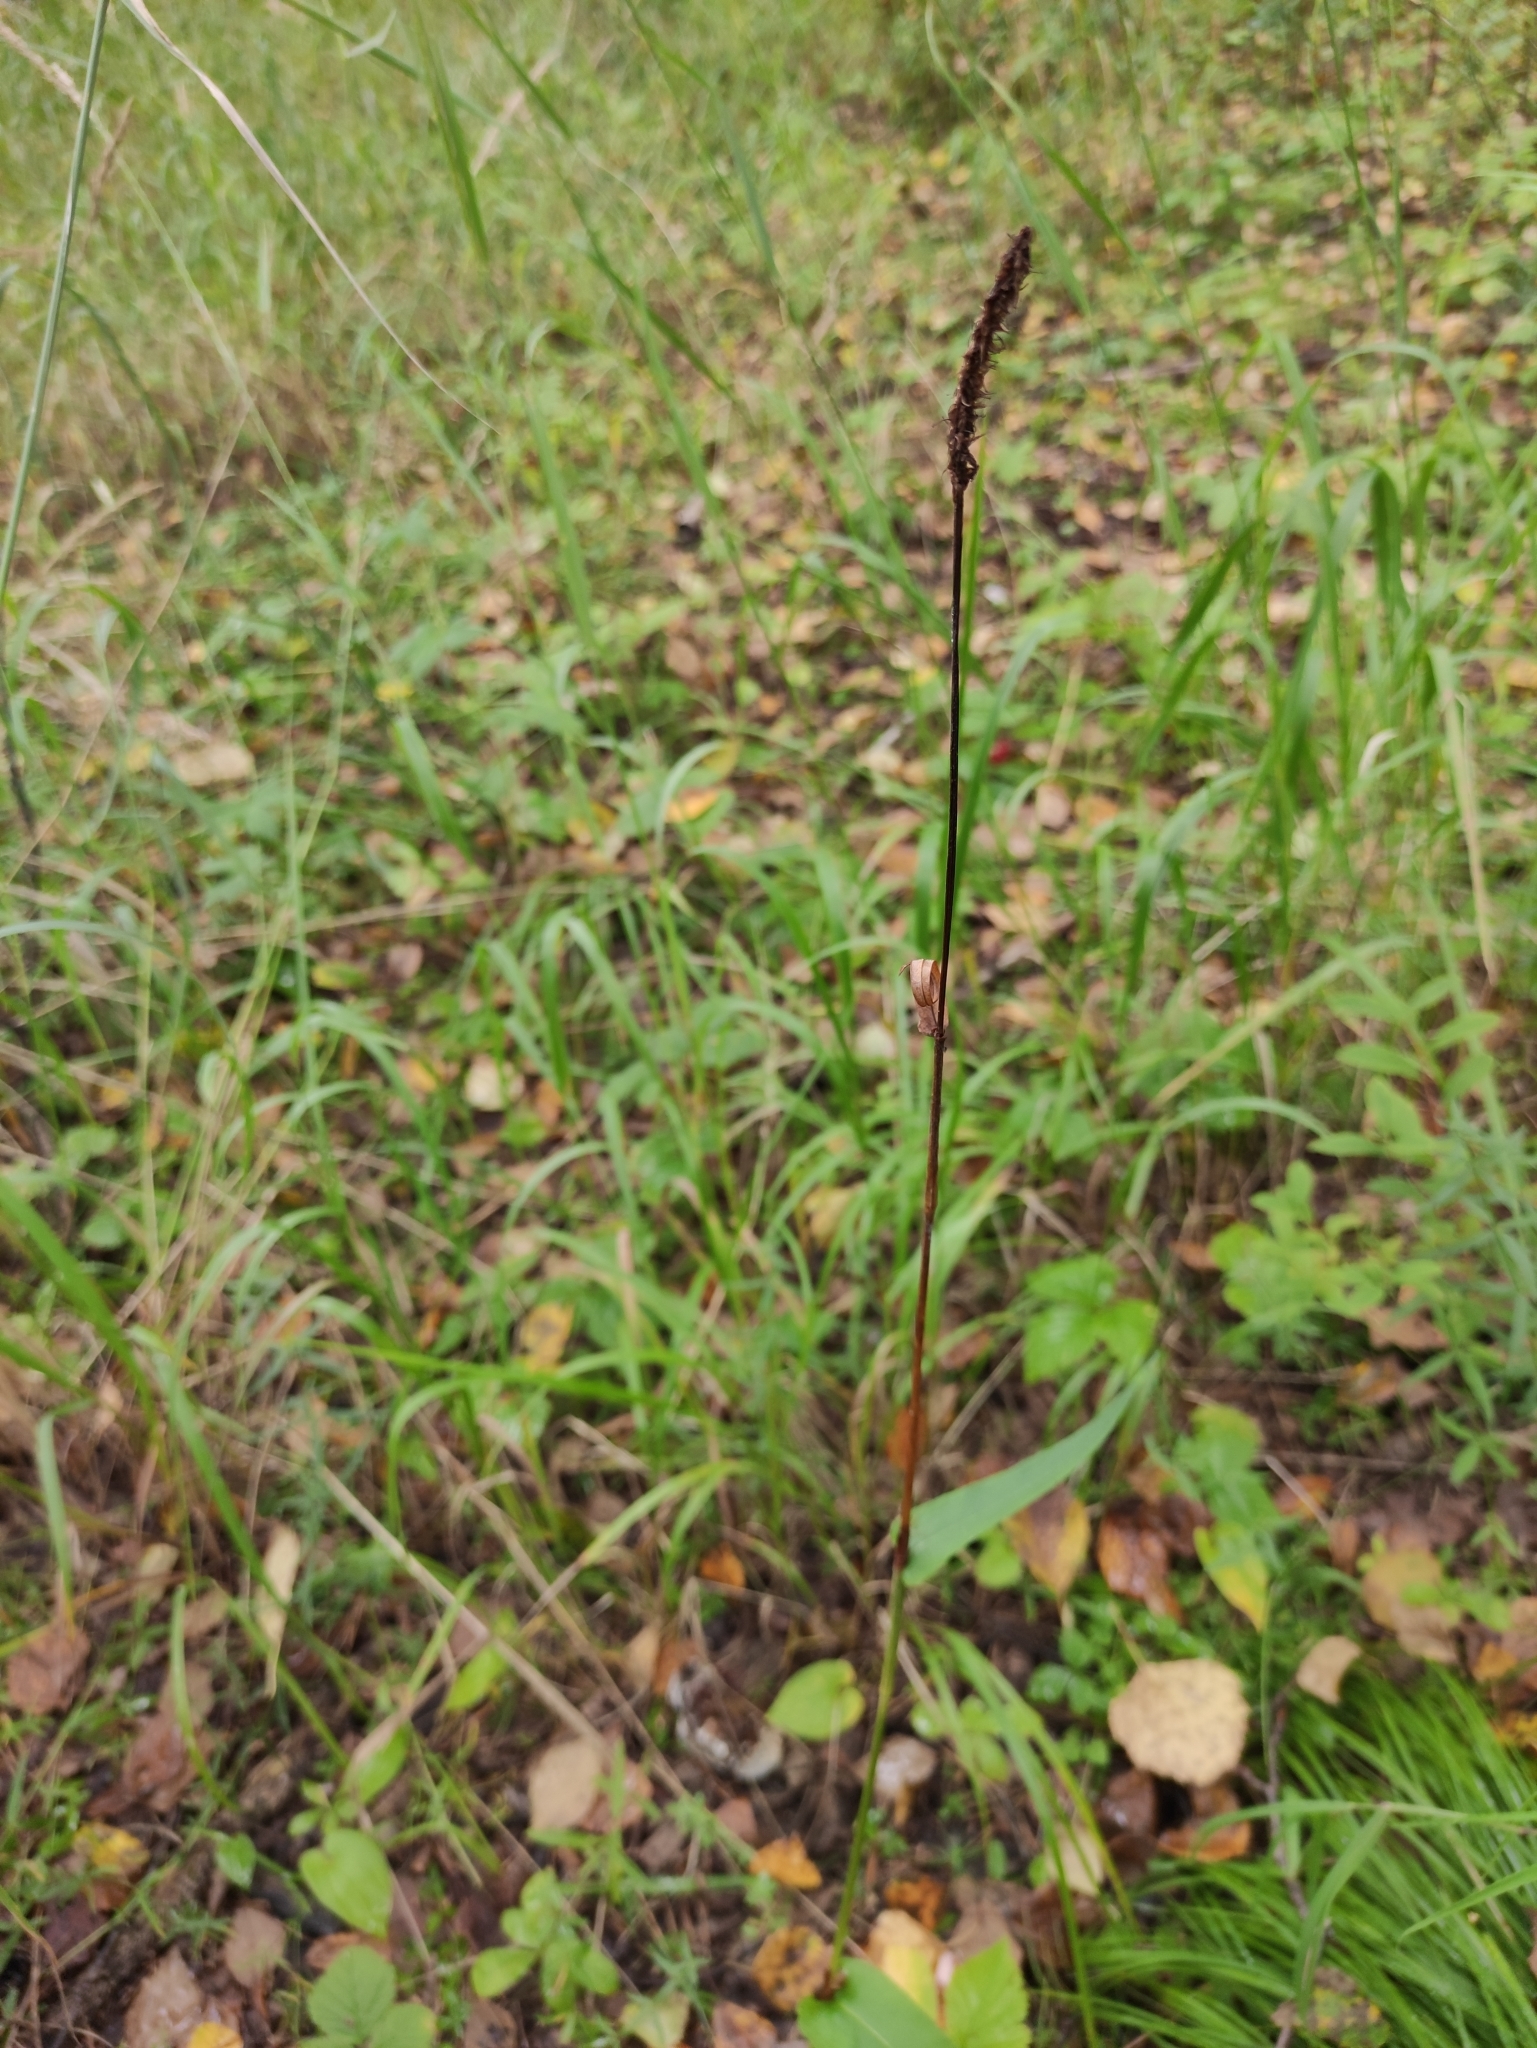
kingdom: Plantae
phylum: Tracheophyta
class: Magnoliopsida
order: Caryophyllales
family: Polygonaceae
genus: Bistorta
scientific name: Bistorta vivipara
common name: Alpine bistort
